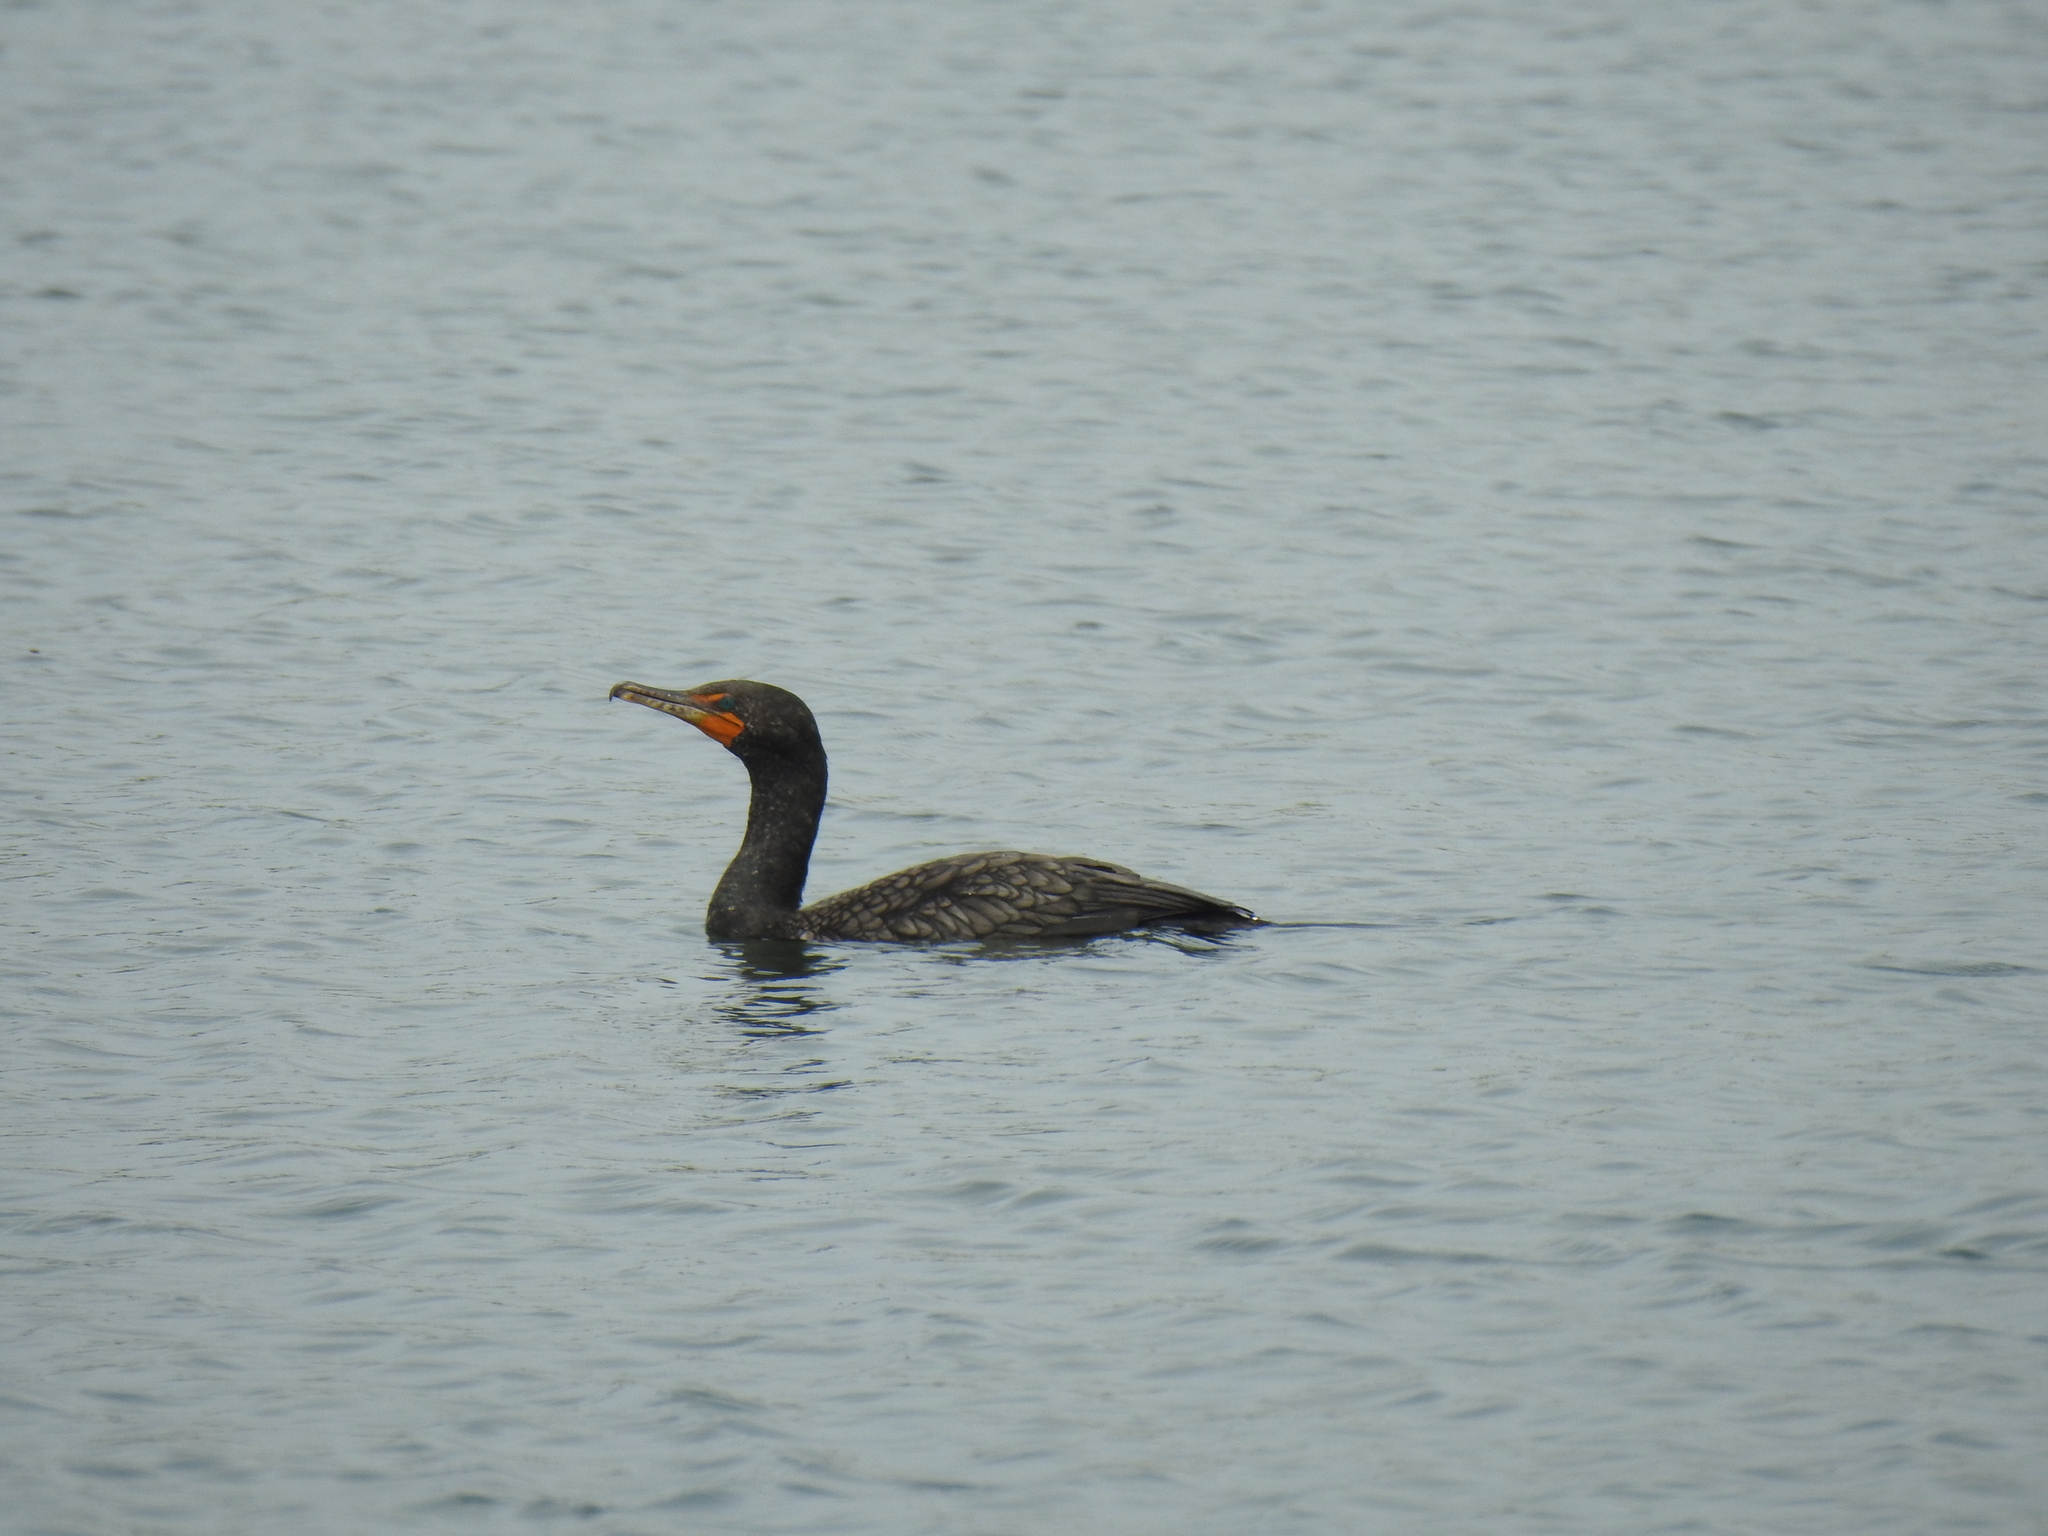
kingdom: Animalia
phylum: Chordata
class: Aves
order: Suliformes
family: Phalacrocoracidae
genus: Phalacrocorax
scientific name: Phalacrocorax auritus
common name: Double-crested cormorant
